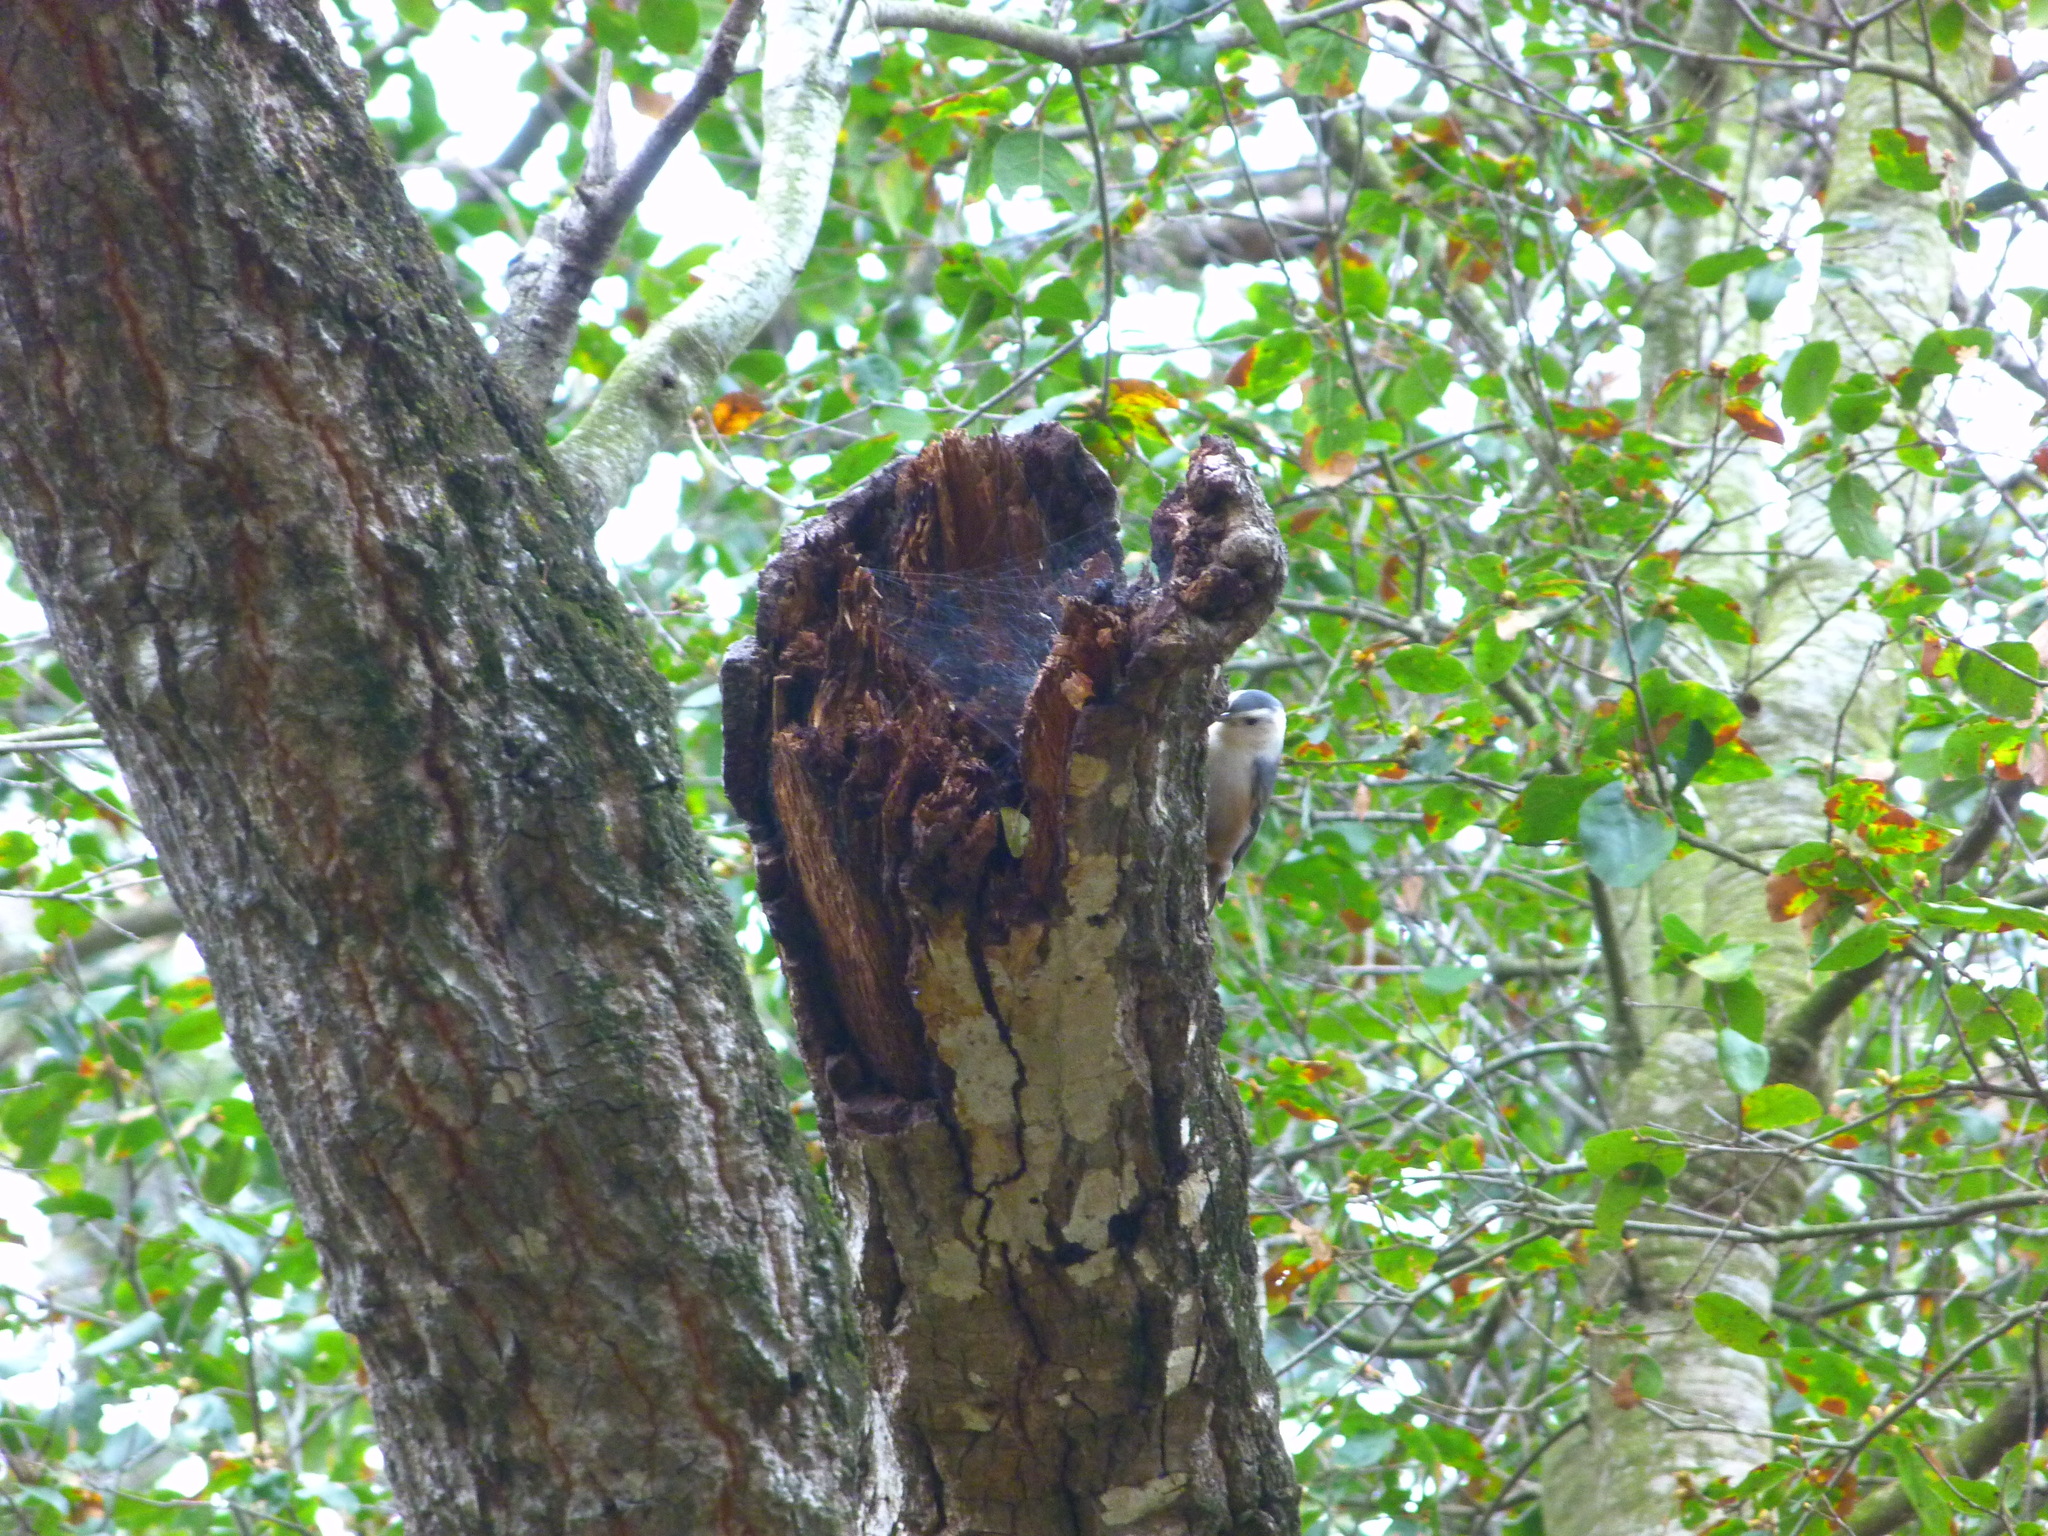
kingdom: Animalia
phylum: Chordata
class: Aves
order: Passeriformes
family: Sittidae
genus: Sitta
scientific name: Sitta carolinensis
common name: White-breasted nuthatch
